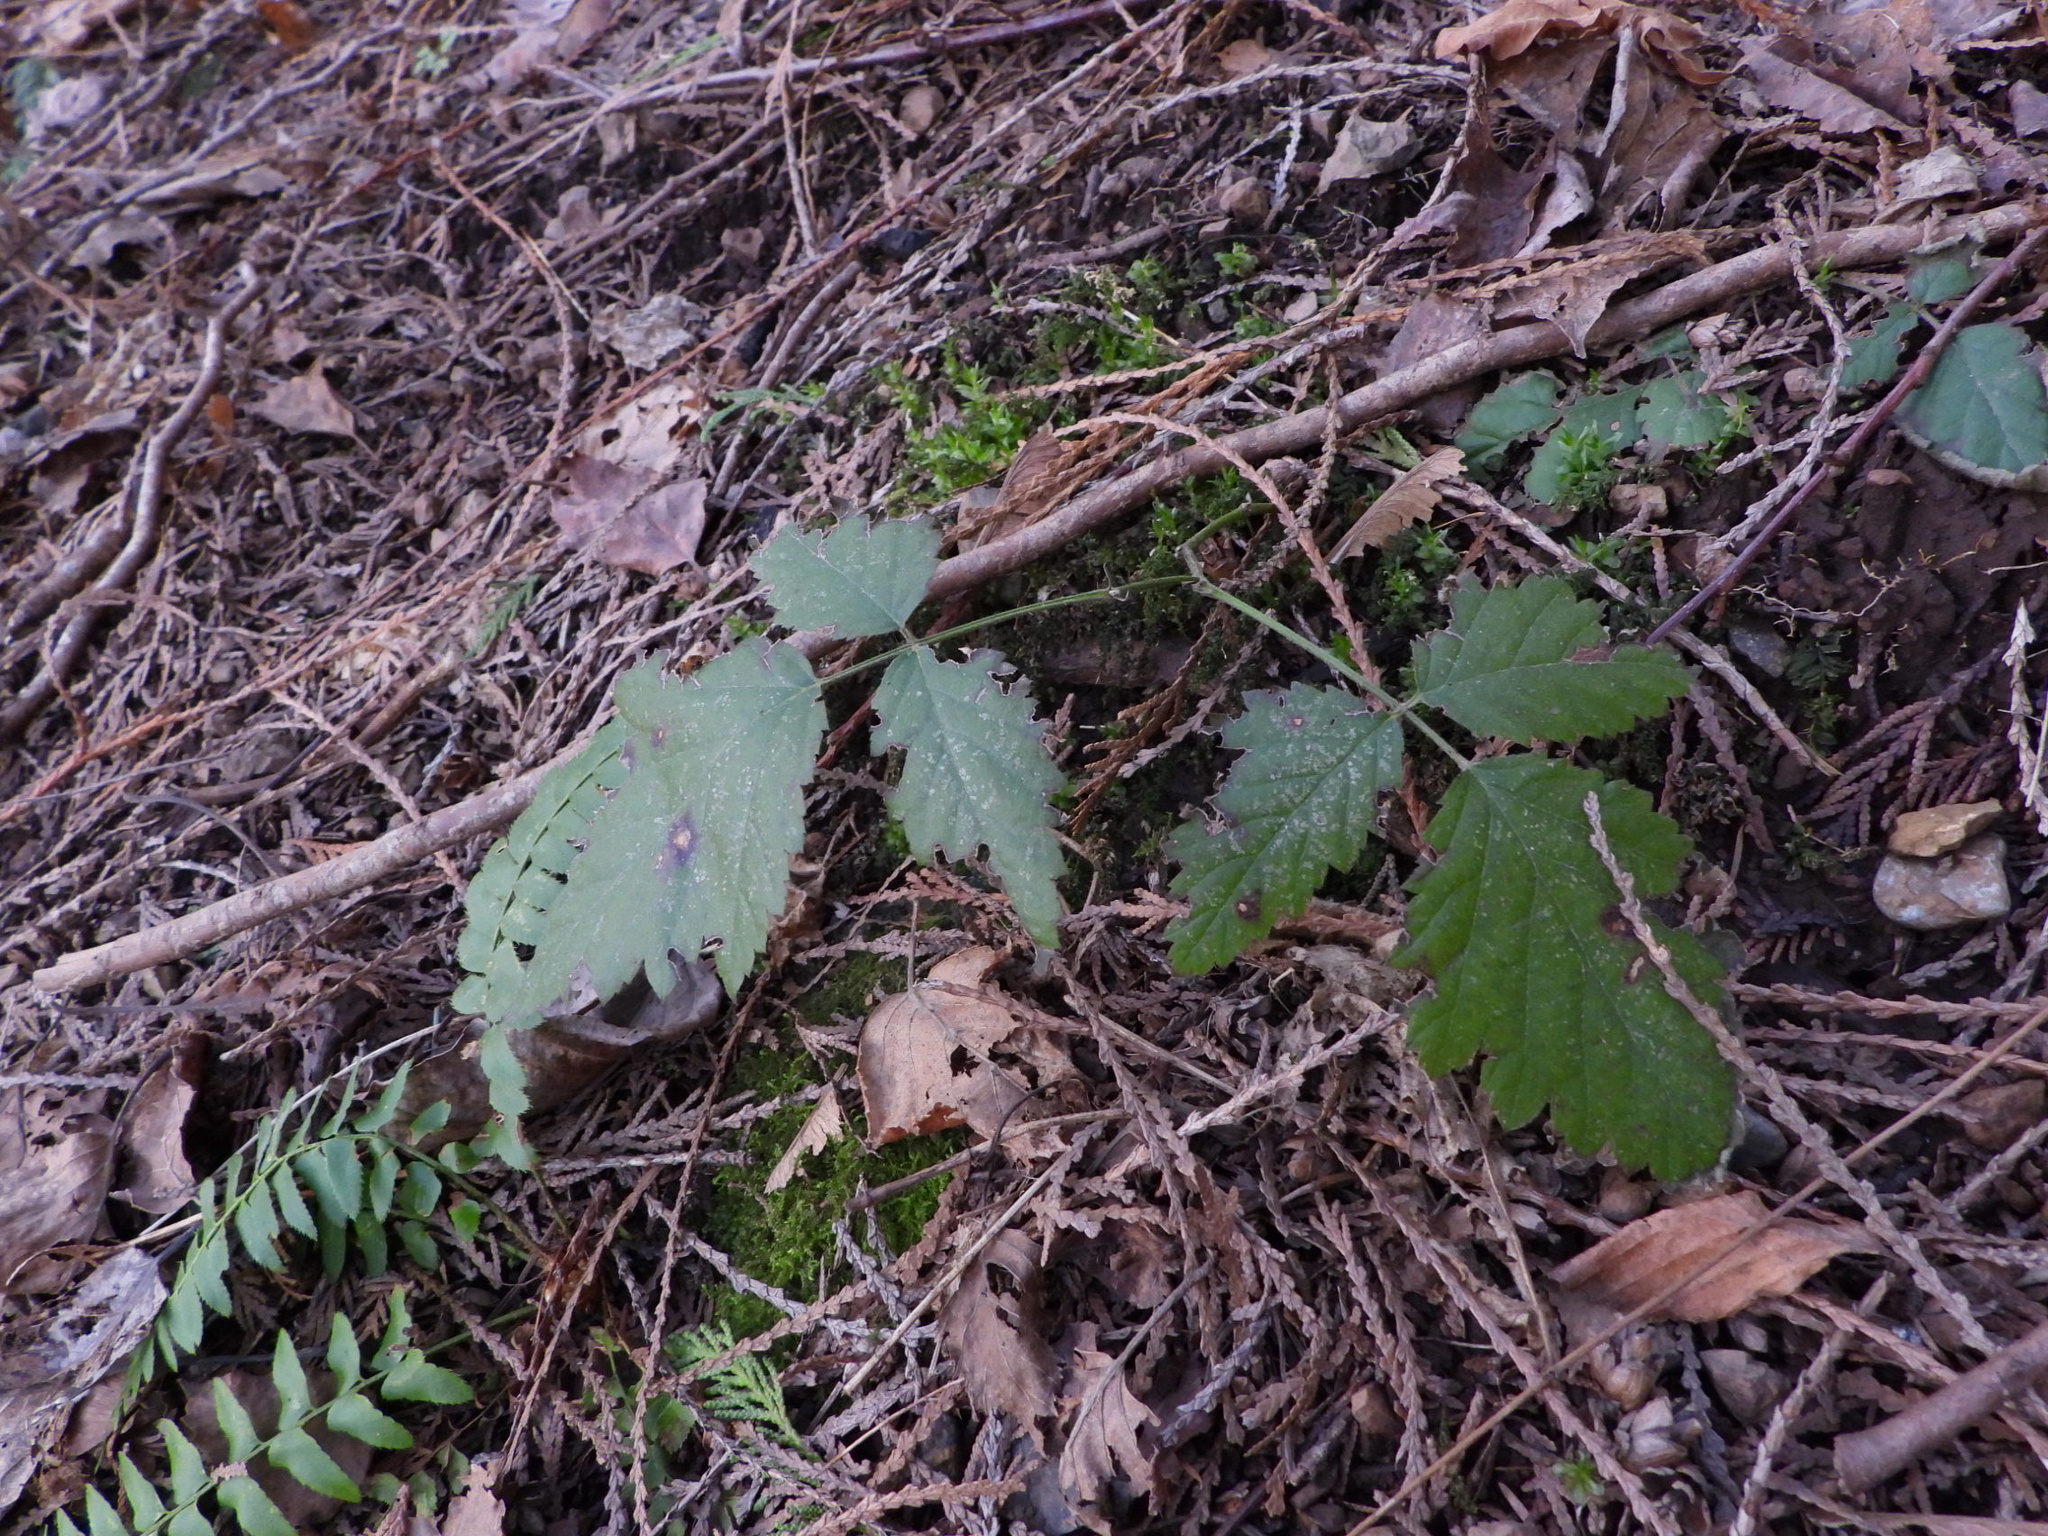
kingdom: Plantae
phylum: Tracheophyta
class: Magnoliopsida
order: Rosales
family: Rosaceae
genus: Rubus
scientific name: Rubus ursinus
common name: Pacific blackberry
